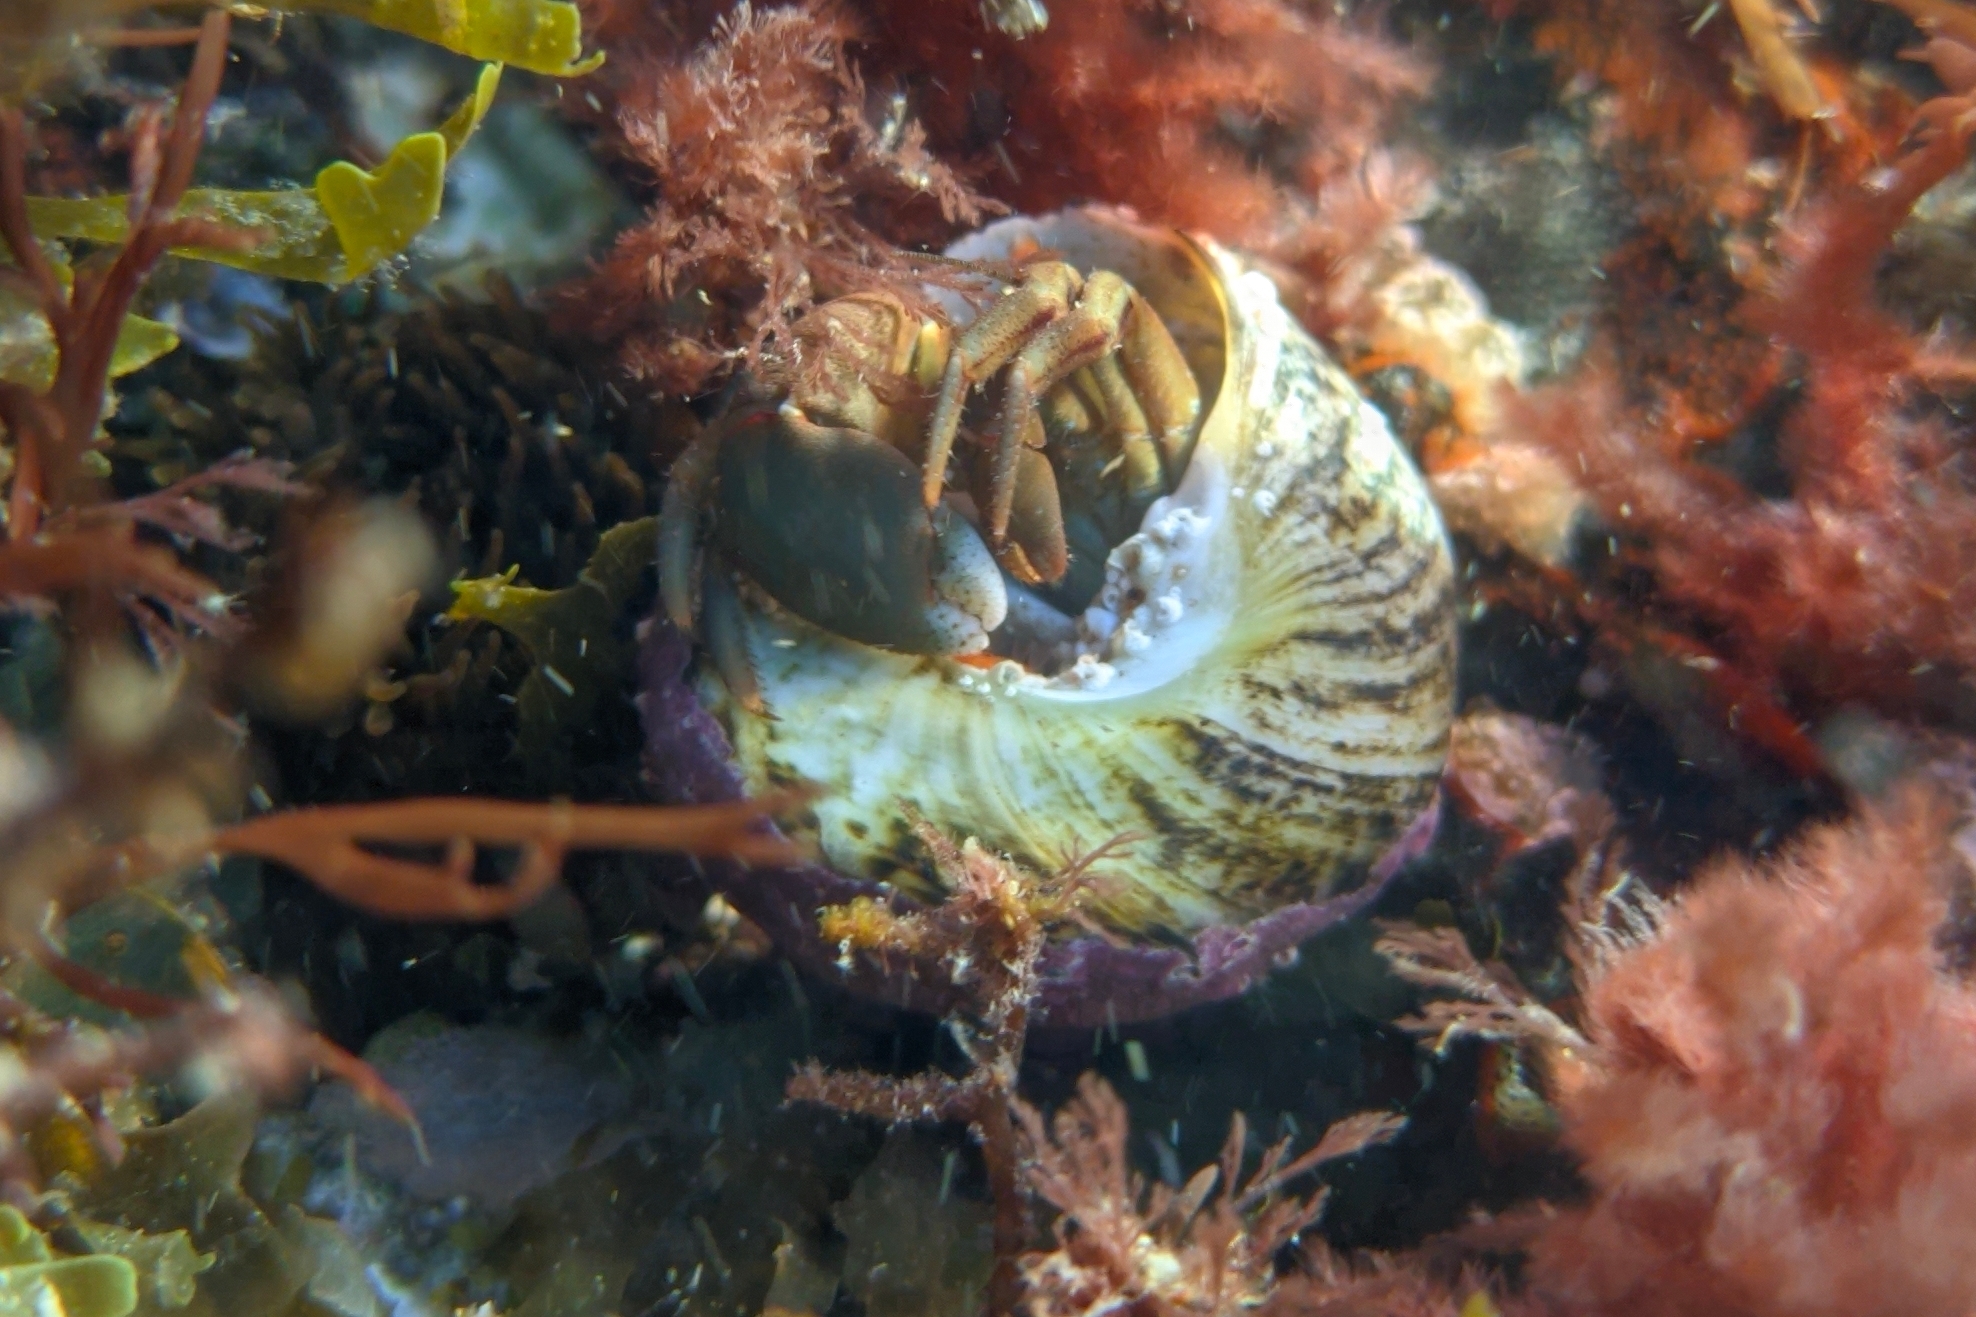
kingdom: Animalia
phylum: Arthropoda
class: Malacostraca
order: Decapoda
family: Paguridae
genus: Pagurus
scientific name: Pagurus middendorfii
